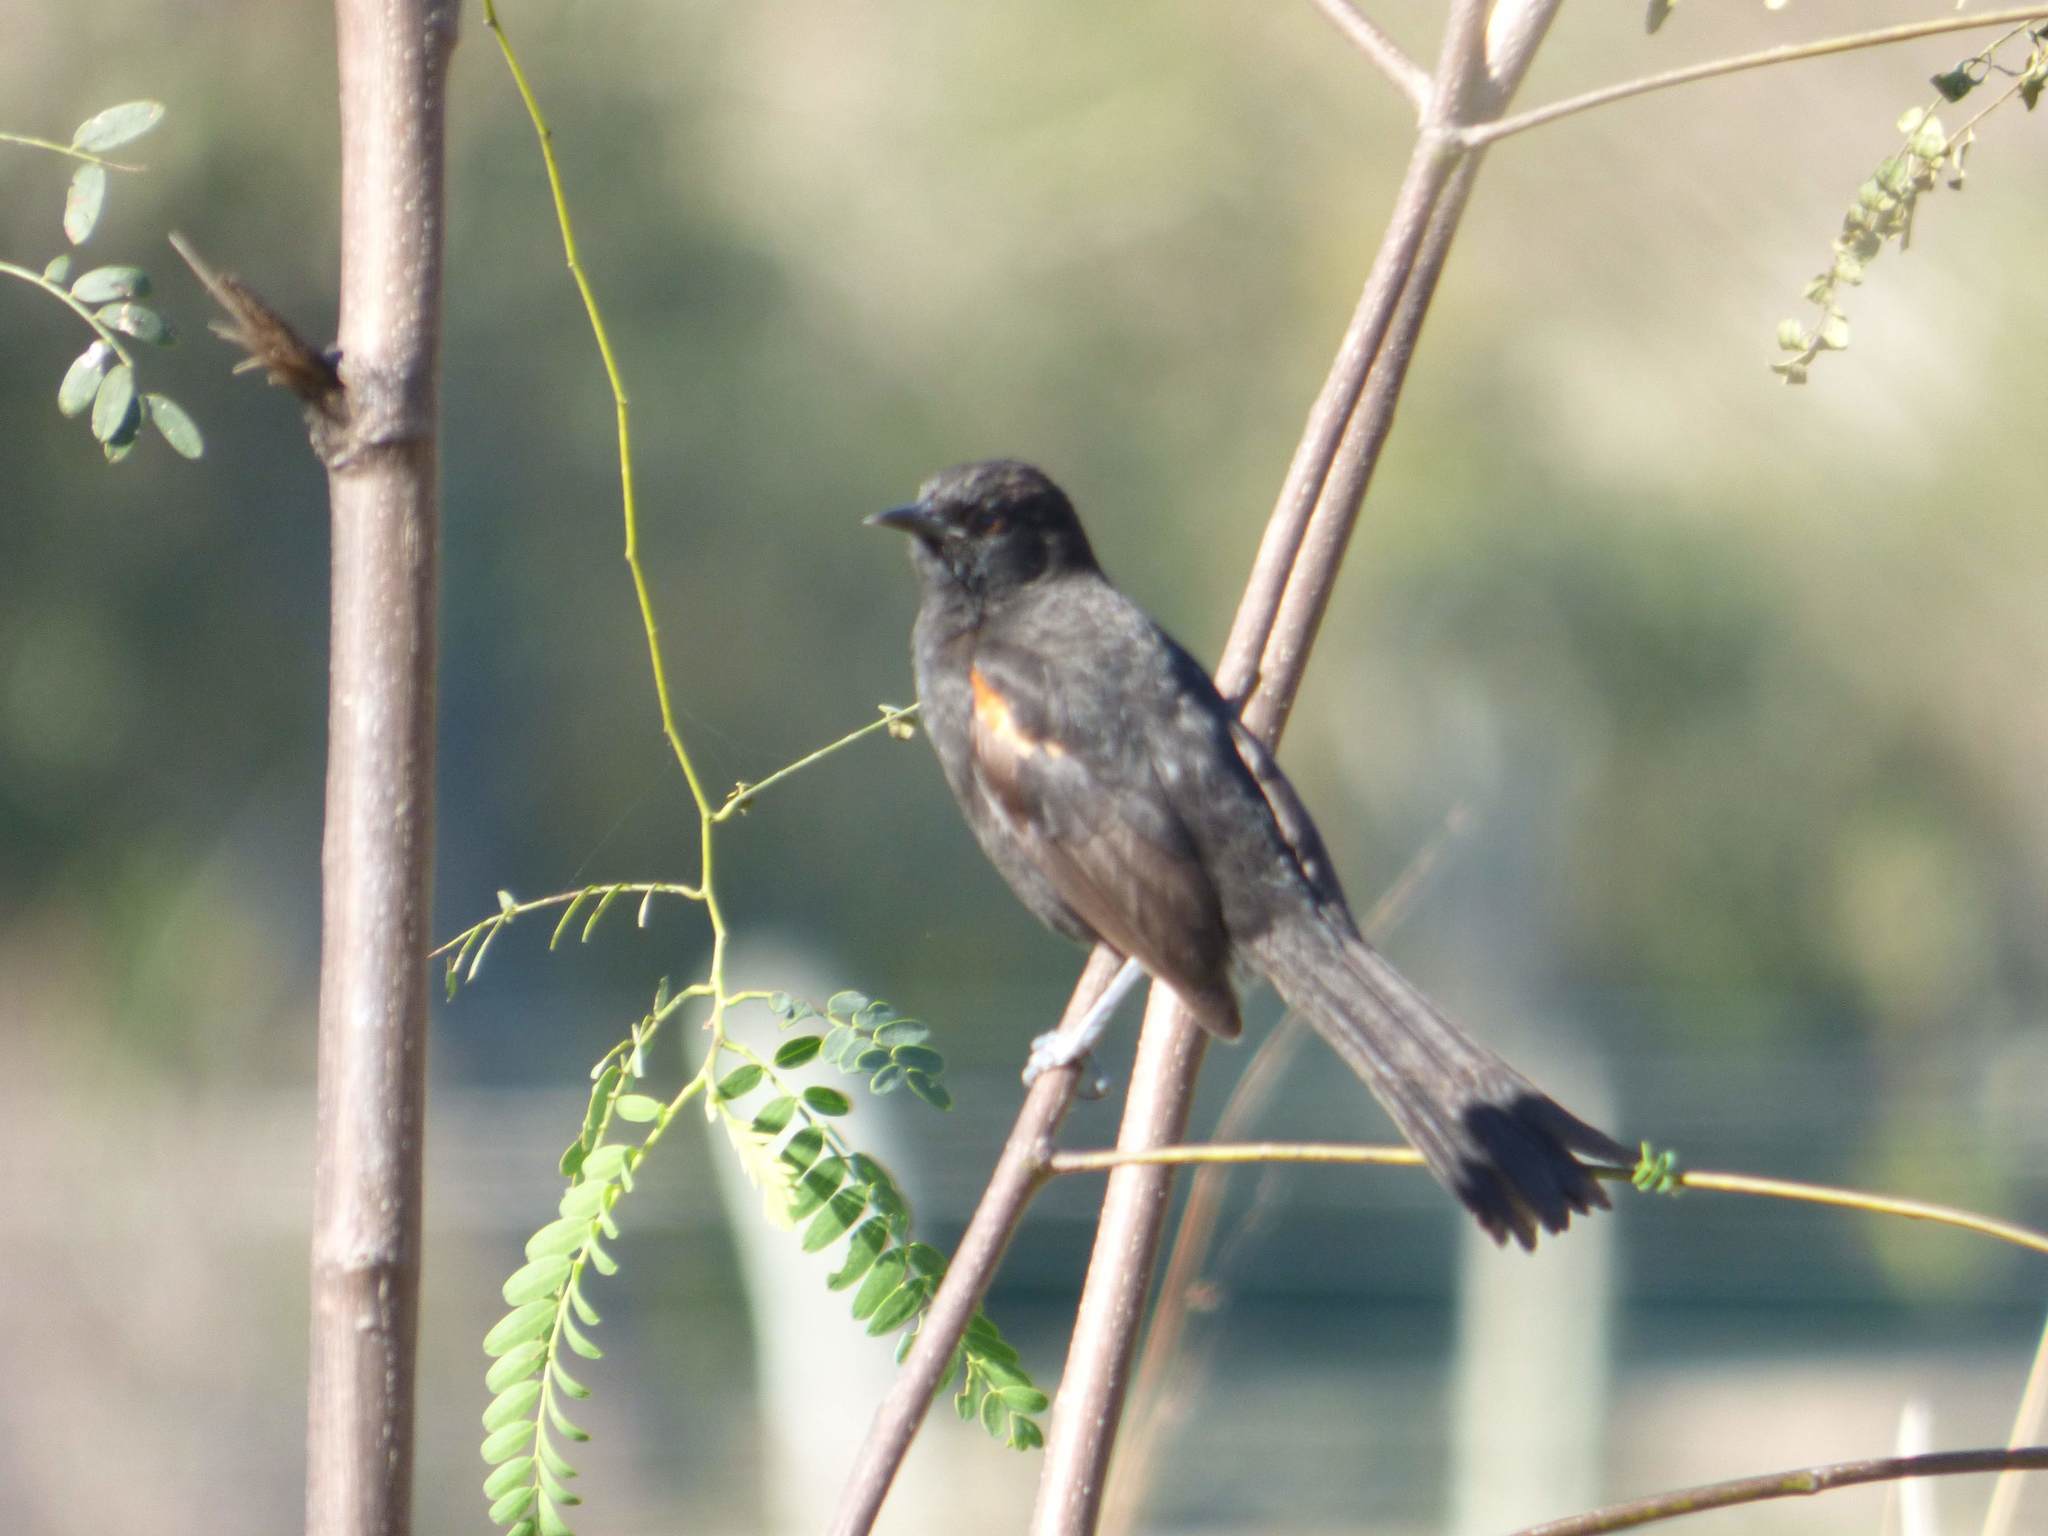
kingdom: Animalia
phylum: Chordata
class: Aves
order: Passeriformes
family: Icteridae
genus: Icterus
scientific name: Icterus cayanensis
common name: Epaulet oriole
